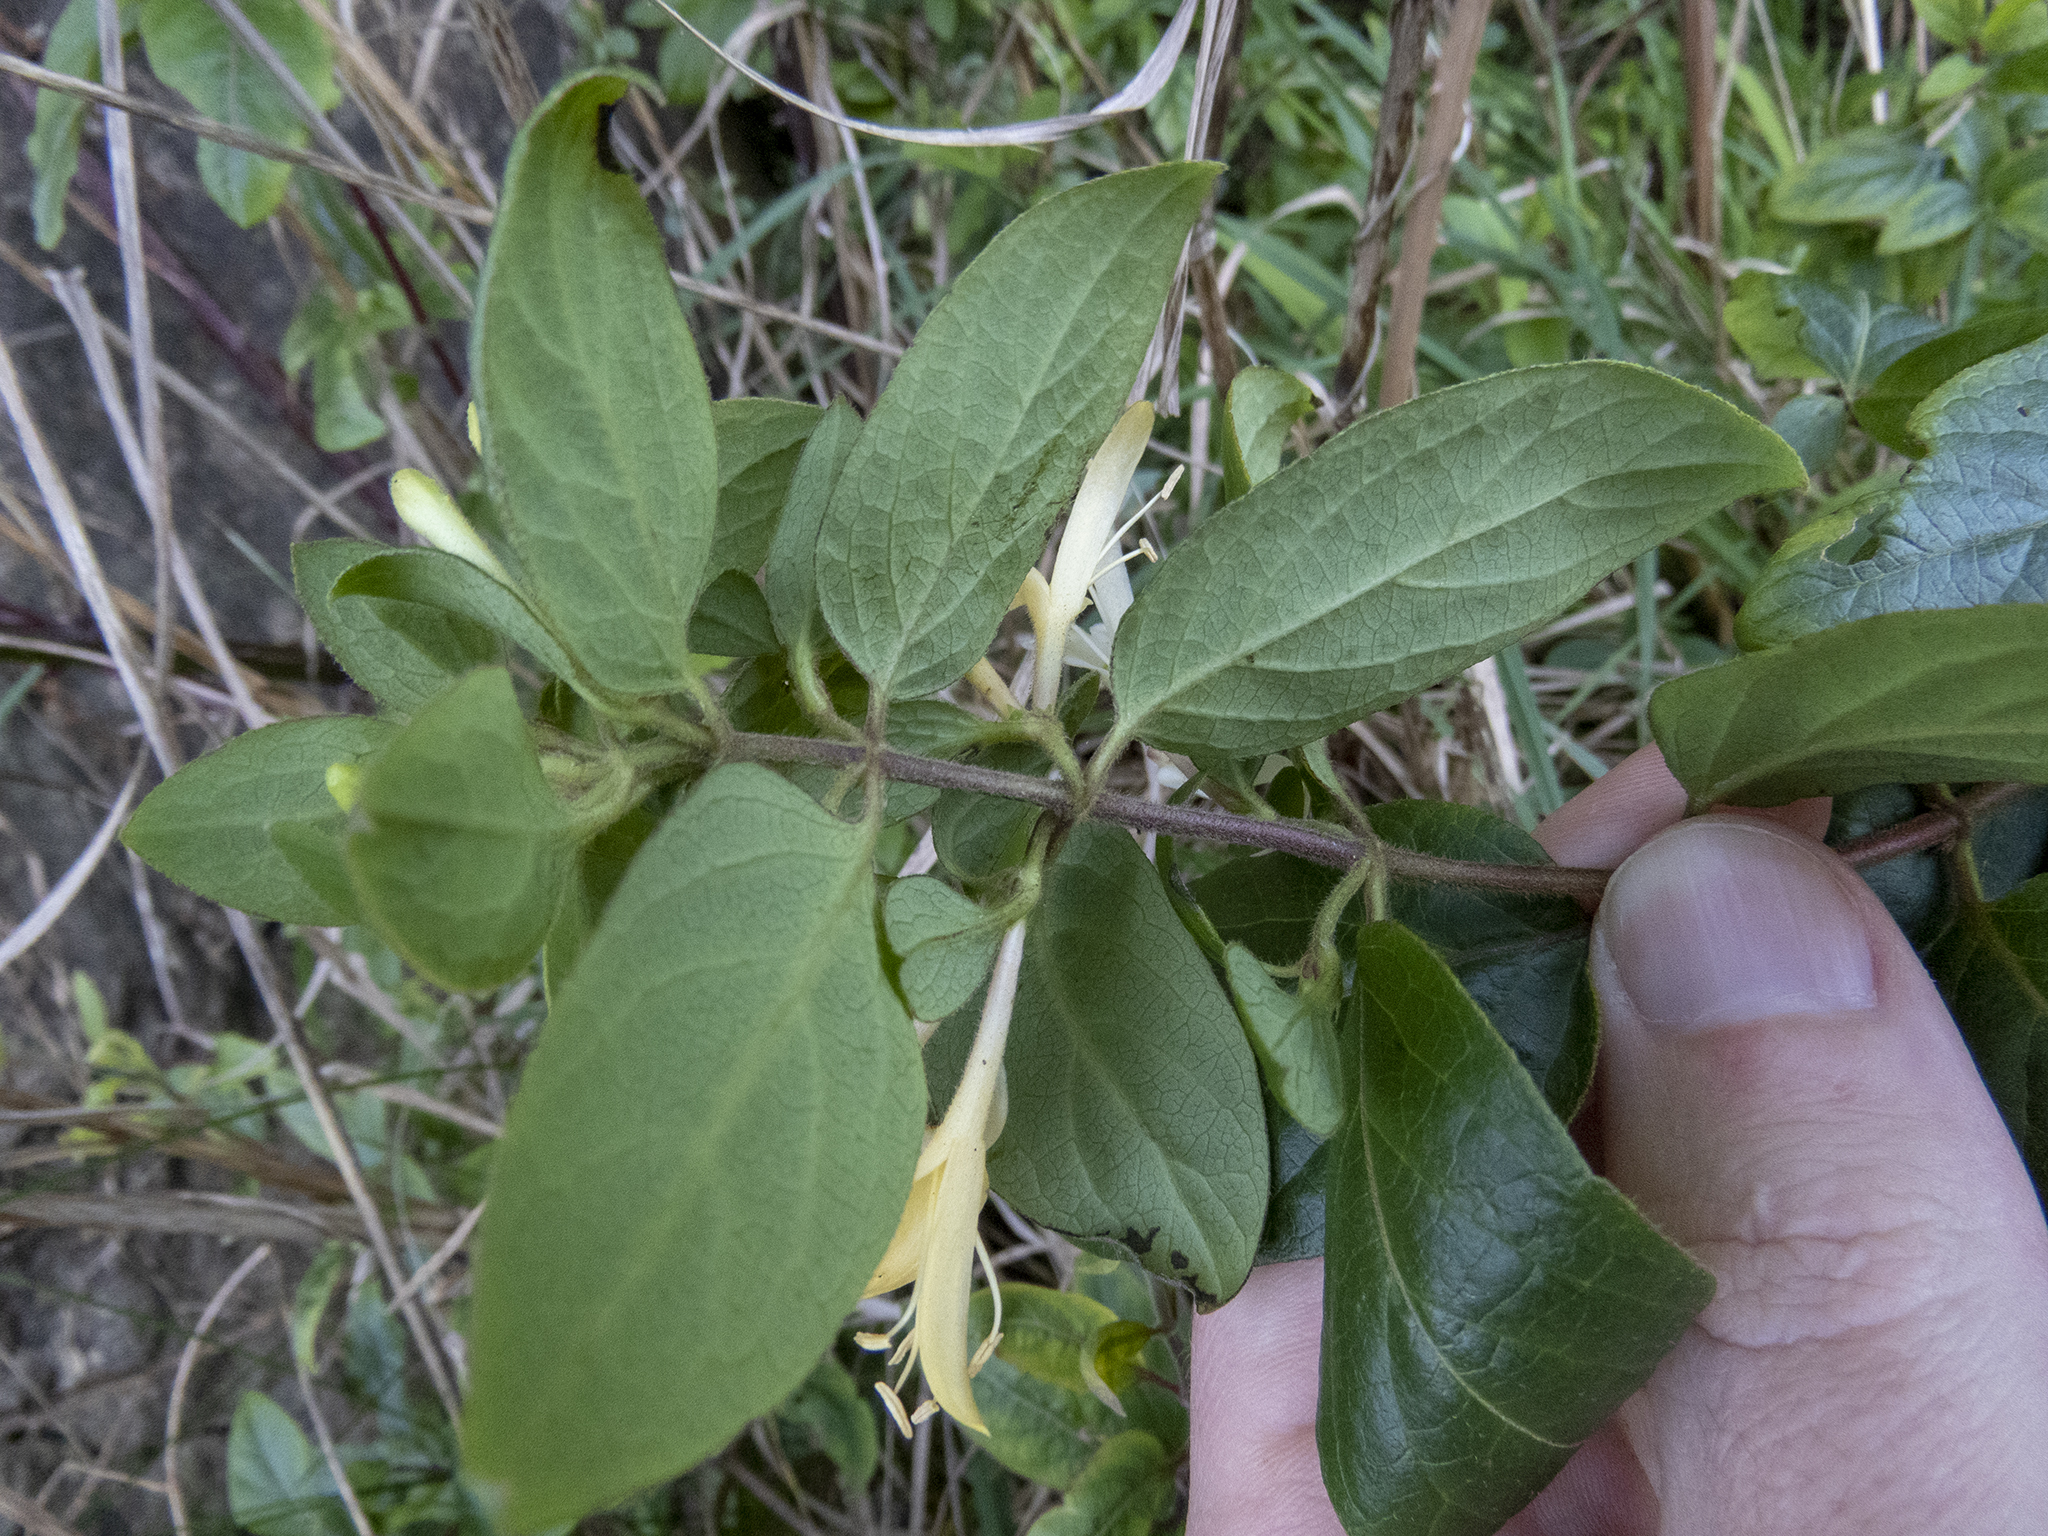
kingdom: Plantae
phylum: Tracheophyta
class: Magnoliopsida
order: Dipsacales
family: Caprifoliaceae
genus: Lonicera
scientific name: Lonicera japonica
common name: Japanese honeysuckle
